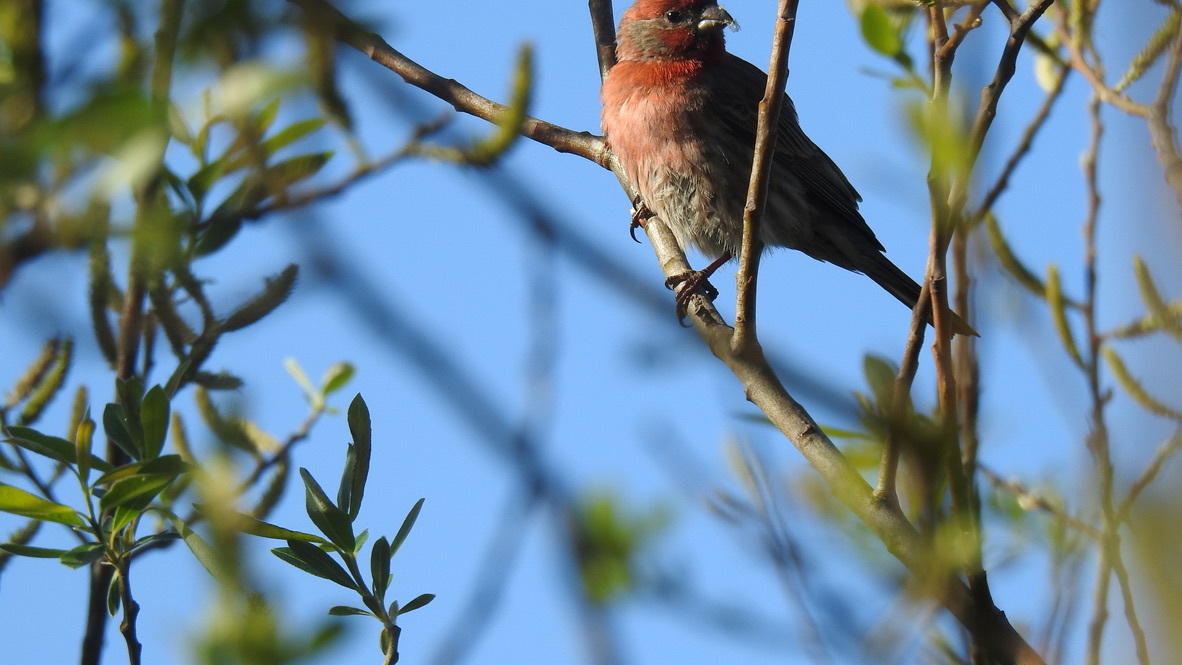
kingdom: Animalia
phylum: Chordata
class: Aves
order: Passeriformes
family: Fringillidae
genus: Haemorhous
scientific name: Haemorhous mexicanus
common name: House finch
